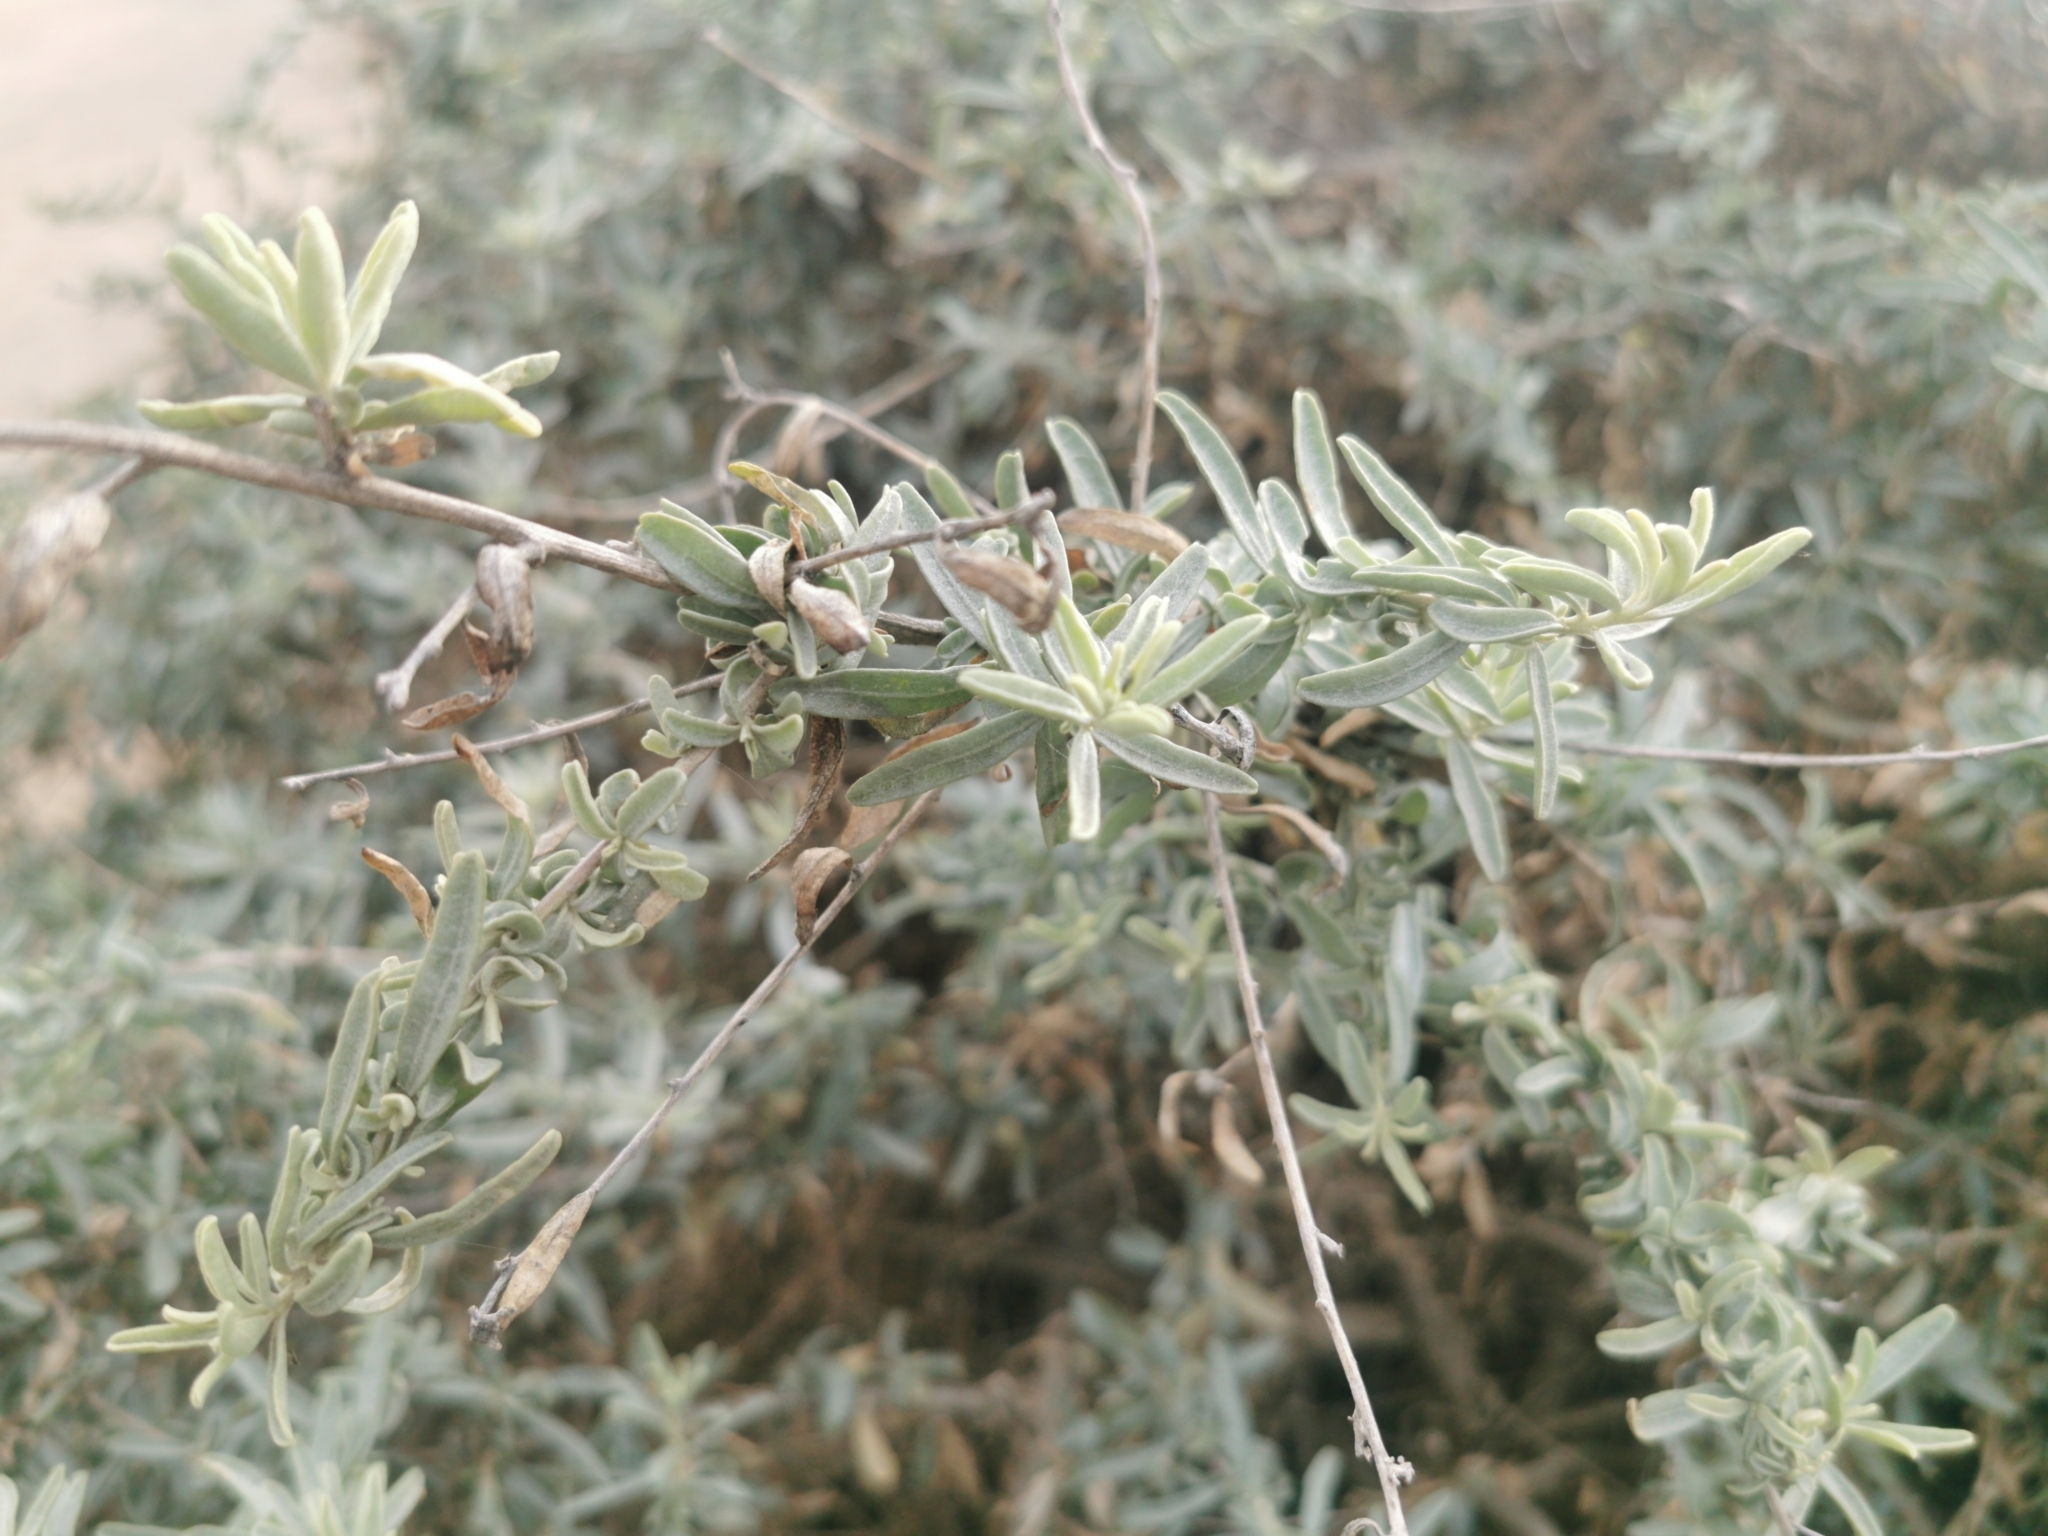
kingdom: Plantae
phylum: Tracheophyta
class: Magnoliopsida
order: Caryophyllales
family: Amaranthaceae
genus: Atriplex
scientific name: Atriplex canescens
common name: Four-wing saltbush
